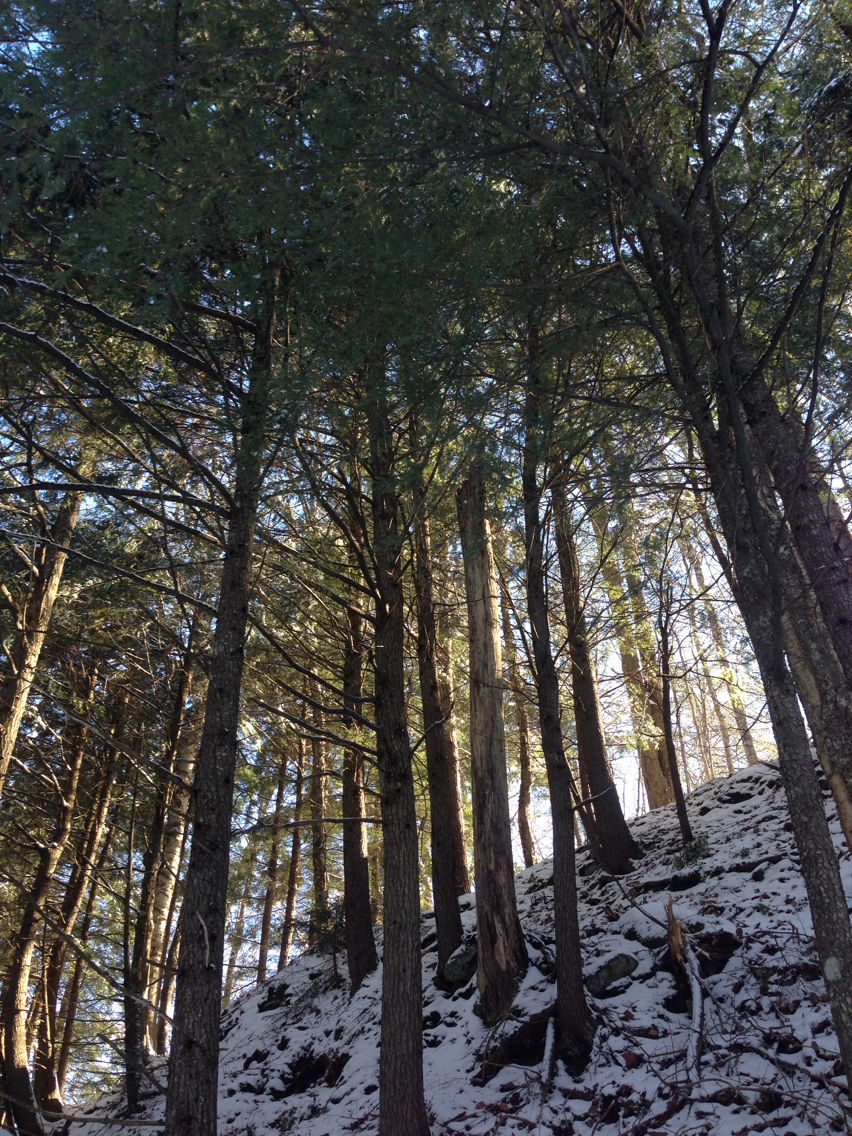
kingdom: Plantae
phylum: Tracheophyta
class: Pinopsida
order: Pinales
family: Pinaceae
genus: Tsuga
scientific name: Tsuga canadensis
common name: Eastern hemlock
